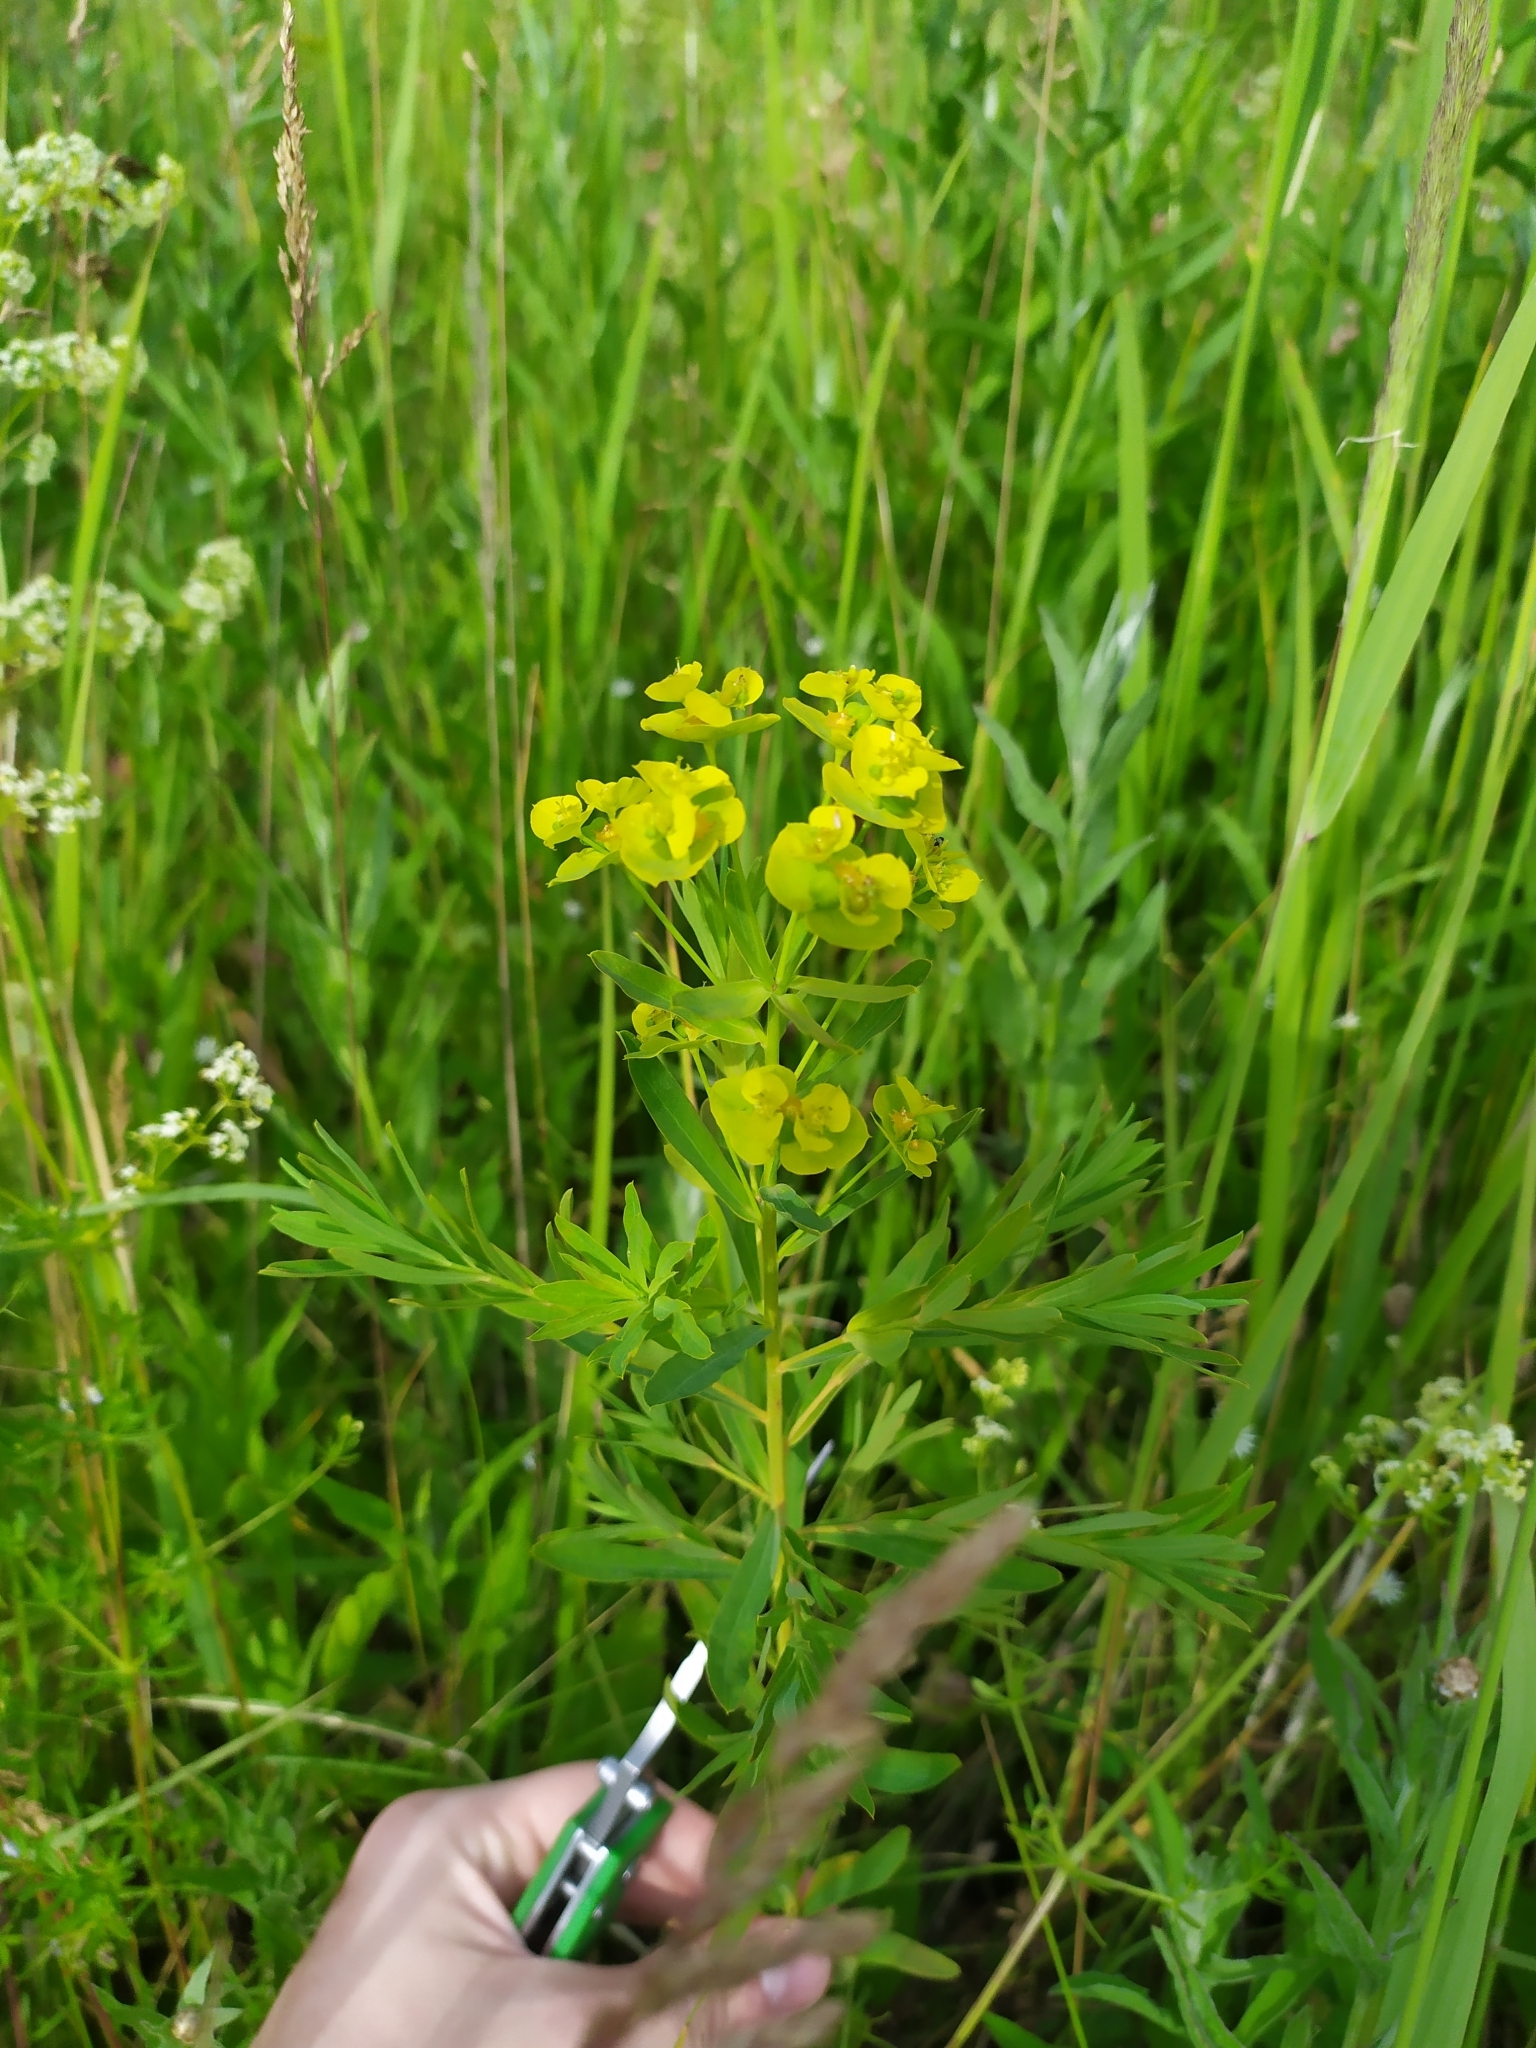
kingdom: Plantae
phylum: Tracheophyta
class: Magnoliopsida
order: Malpighiales
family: Euphorbiaceae
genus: Euphorbia
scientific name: Euphorbia virgata
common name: Leafy spurge
